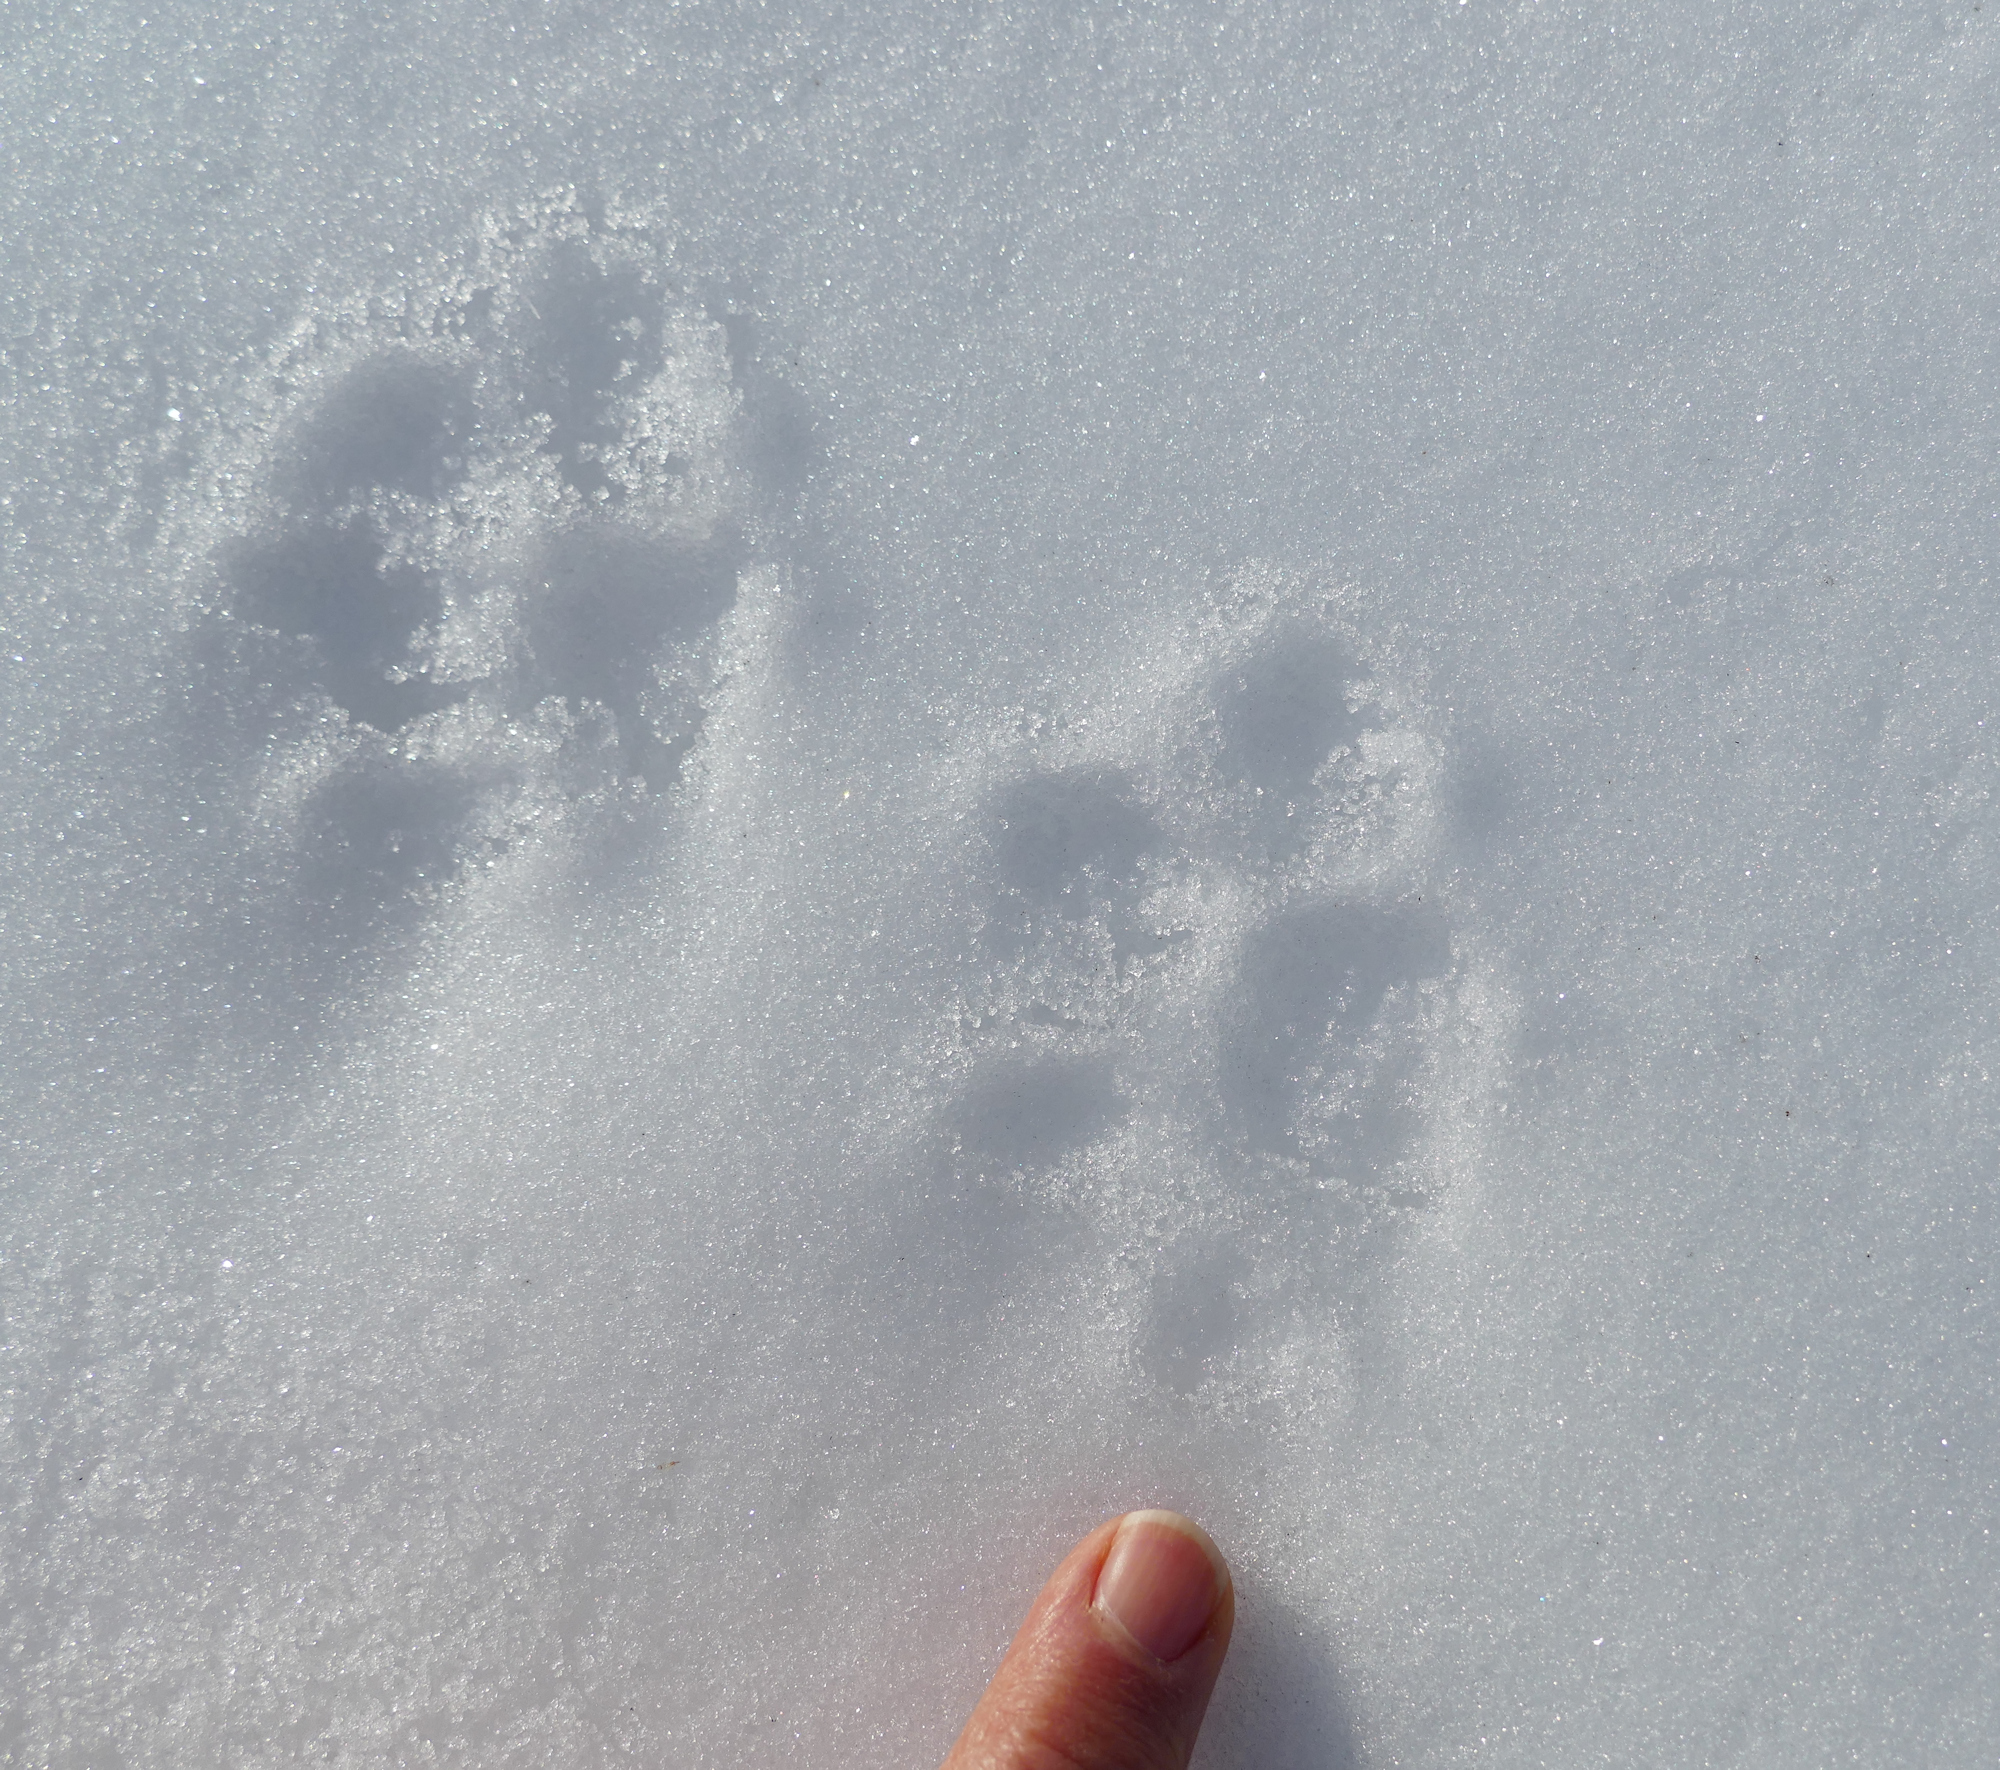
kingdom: Animalia
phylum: Chordata
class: Mammalia
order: Carnivora
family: Felidae
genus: Felis
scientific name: Felis catus
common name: Domestic cat
